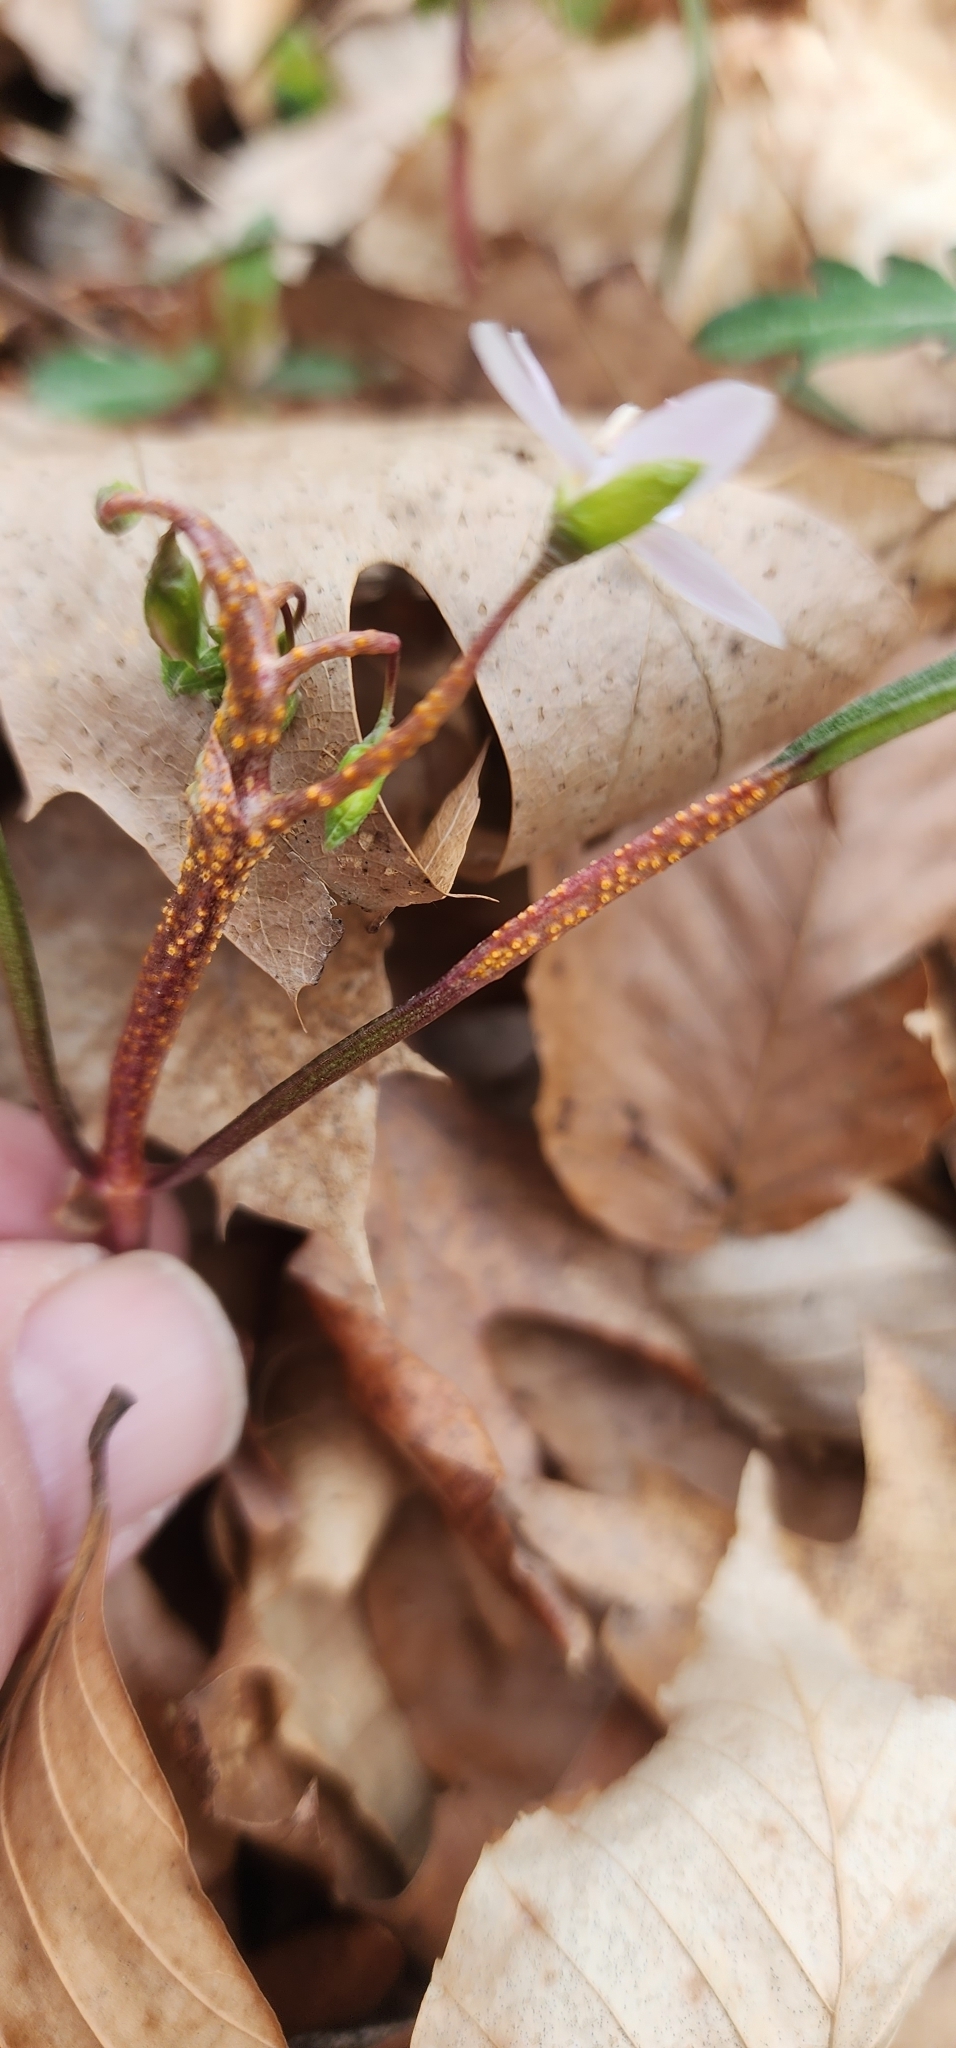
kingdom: Fungi
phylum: Basidiomycota
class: Pucciniomycetes
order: Pucciniales
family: Pucciniaceae
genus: Puccinia
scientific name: Puccinia mariae-wilsoniae
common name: Spring beauty rust
